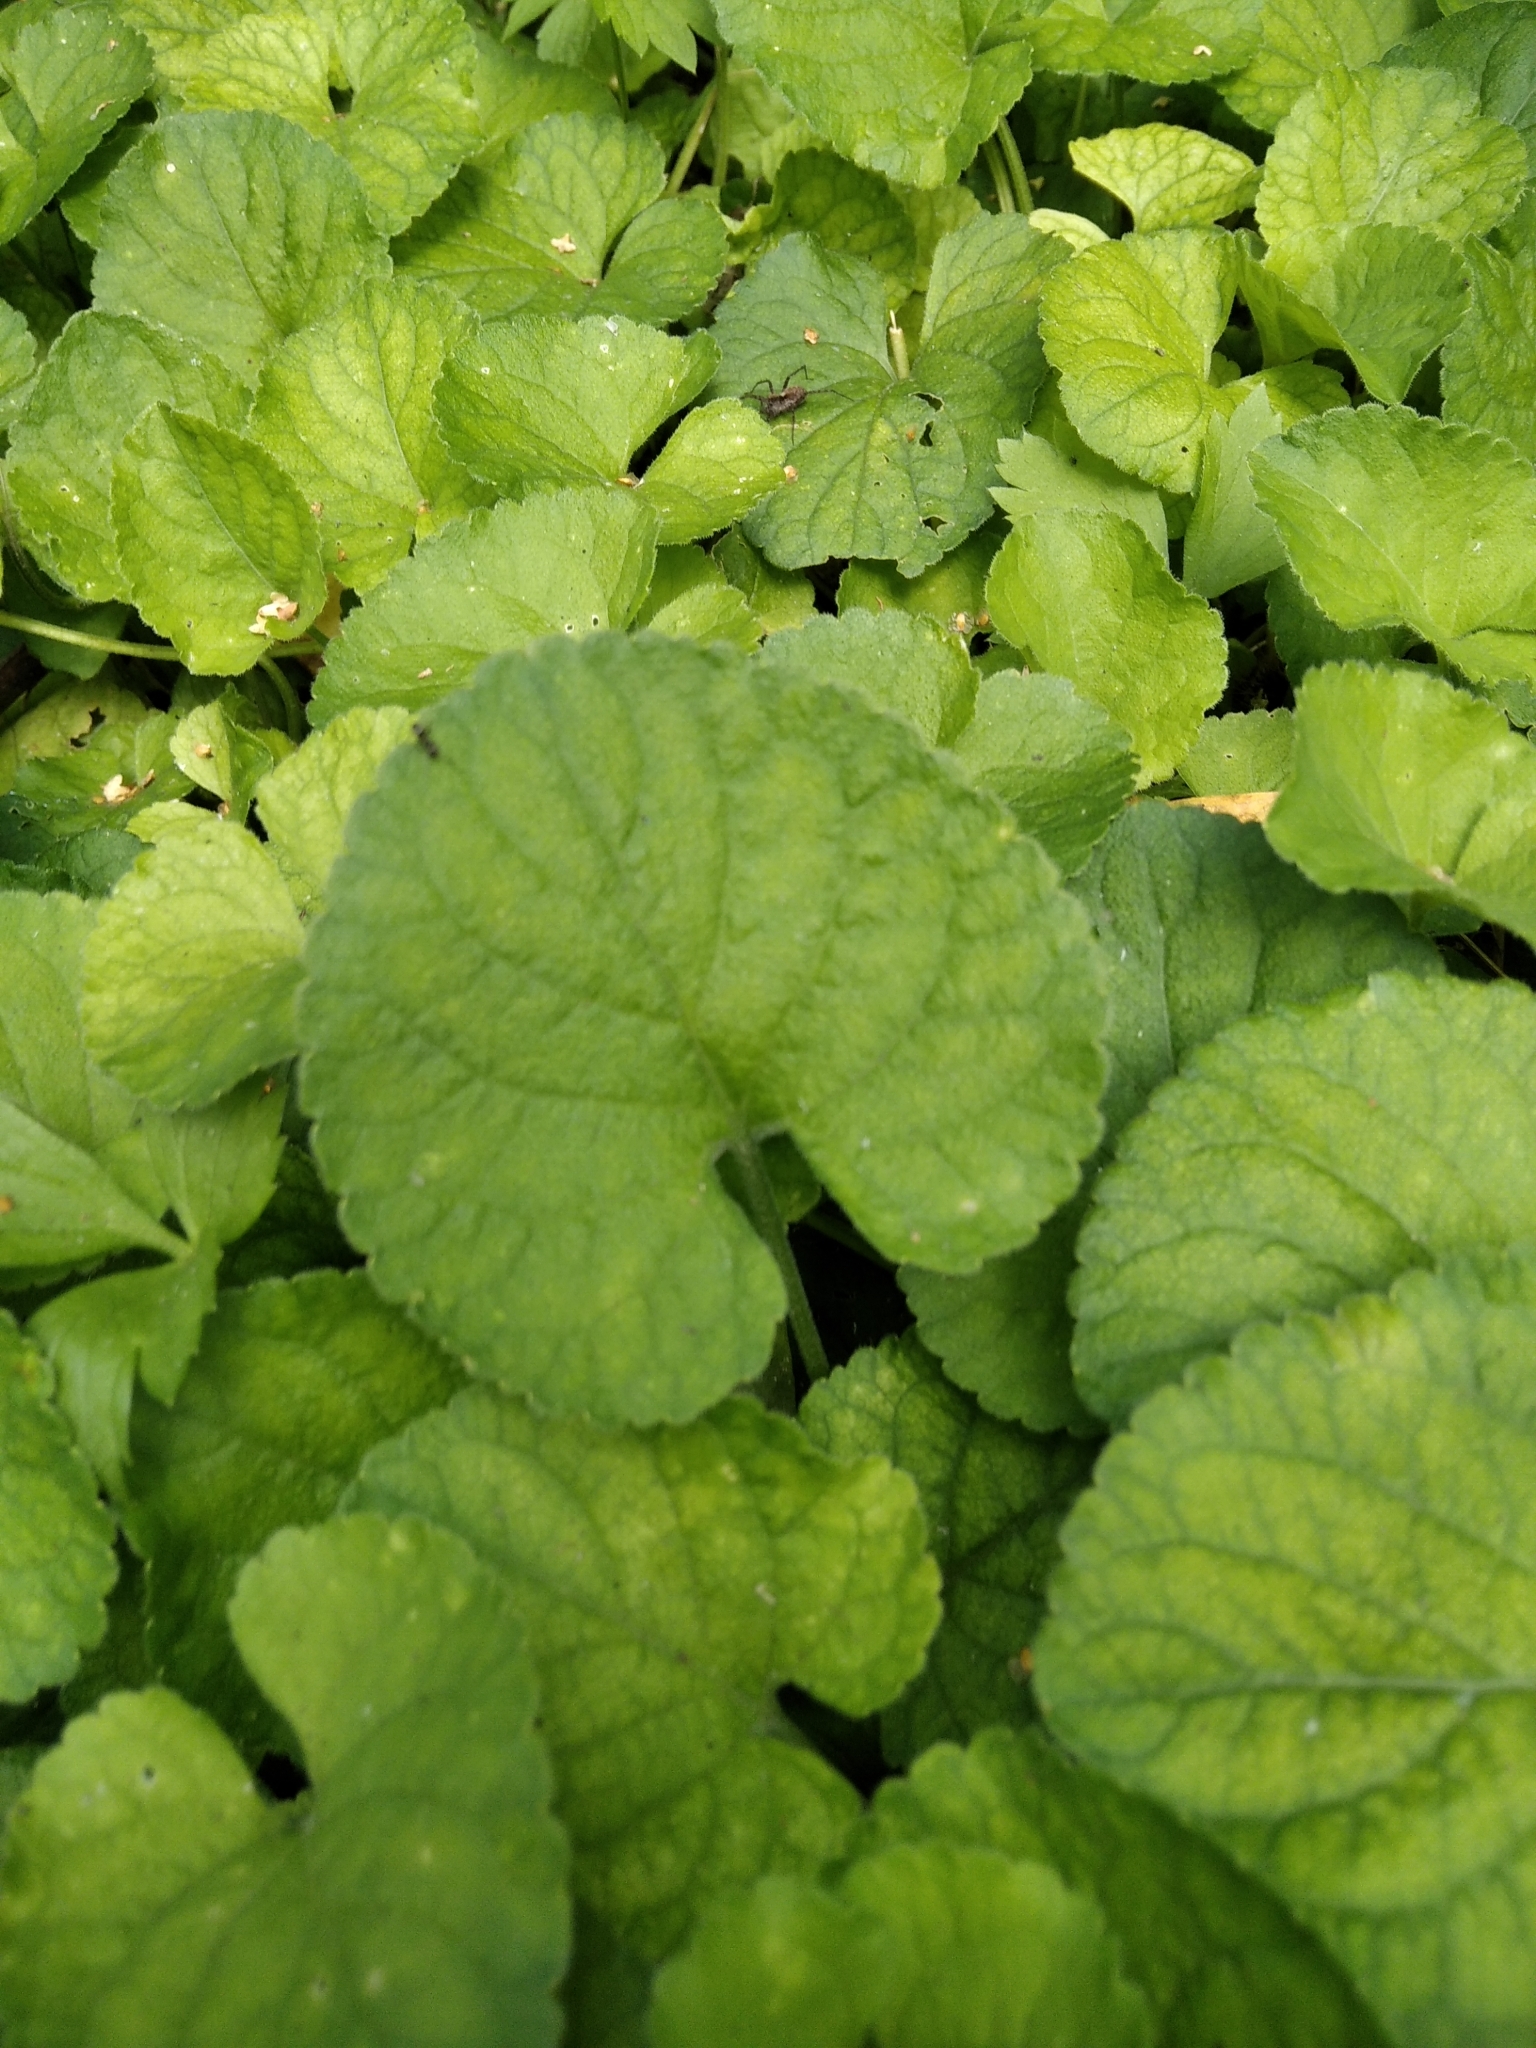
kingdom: Plantae
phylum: Tracheophyta
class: Magnoliopsida
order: Malpighiales
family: Violaceae
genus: Viola
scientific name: Viola odorata
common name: Sweet violet
